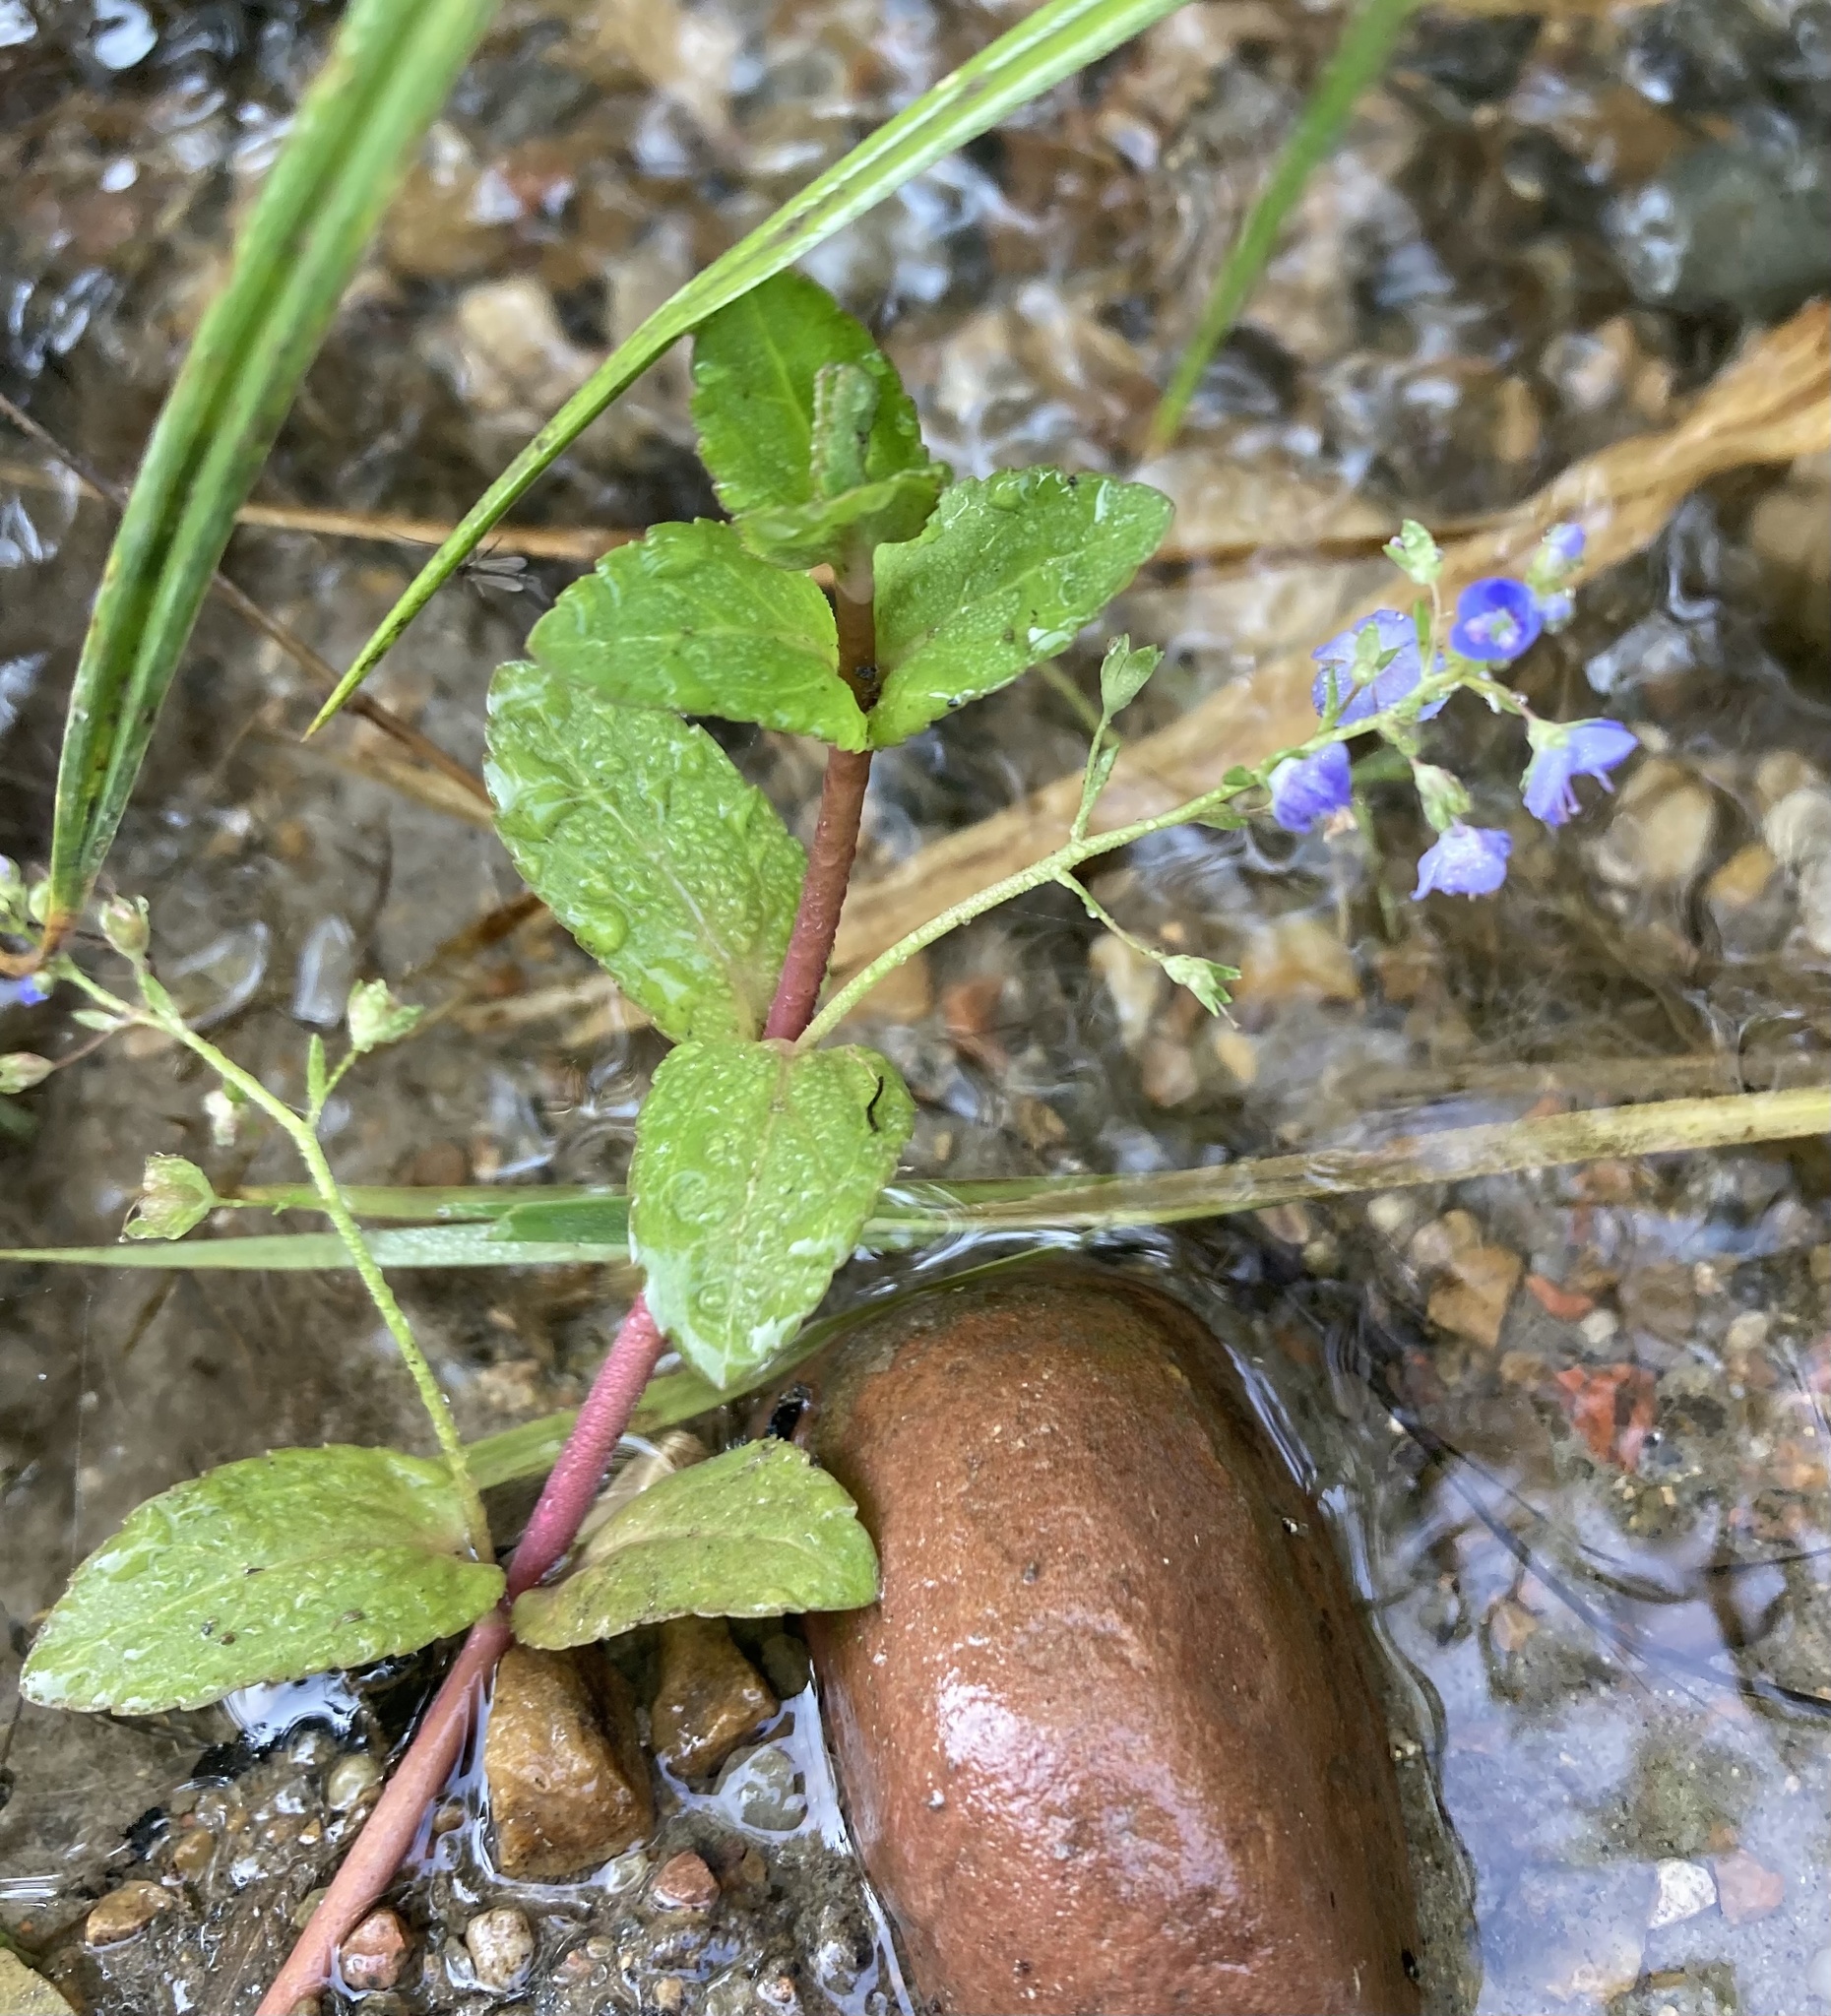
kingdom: Plantae
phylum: Tracheophyta
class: Magnoliopsida
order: Lamiales
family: Plantaginaceae
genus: Veronica
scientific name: Veronica americana
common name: American brooklime
